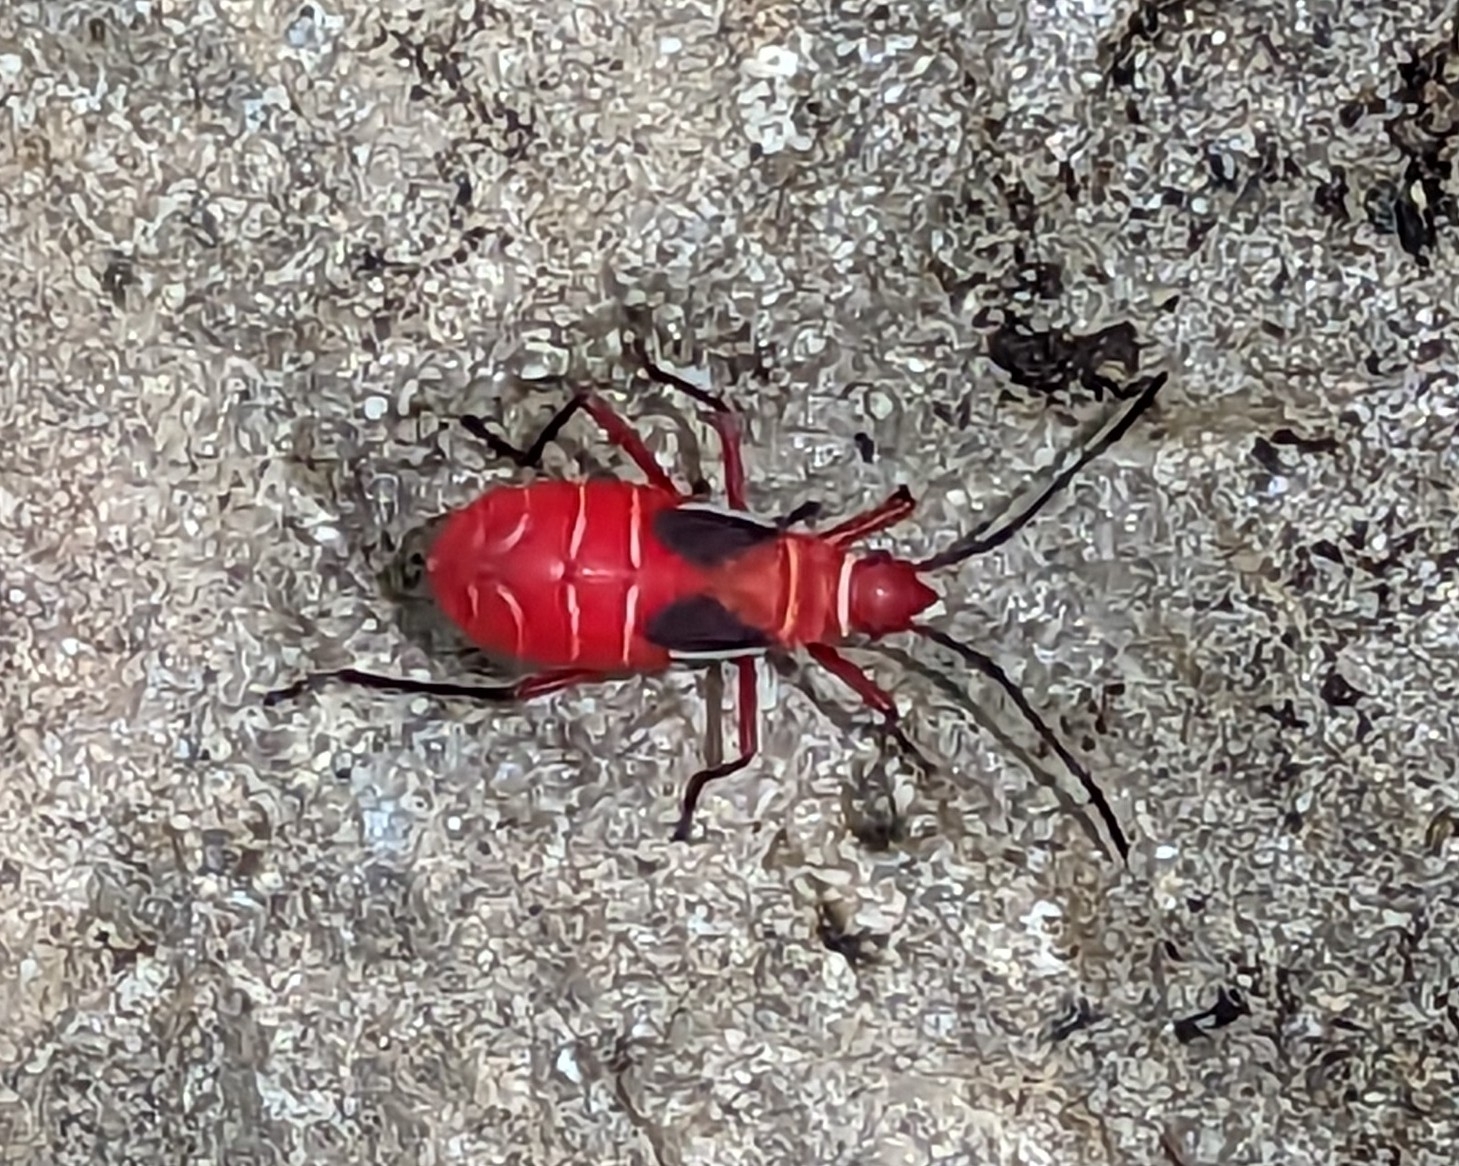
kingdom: Animalia
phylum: Arthropoda
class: Insecta
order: Hemiptera
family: Pyrrhocoridae
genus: Dysdercus
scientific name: Dysdercus suturellus
